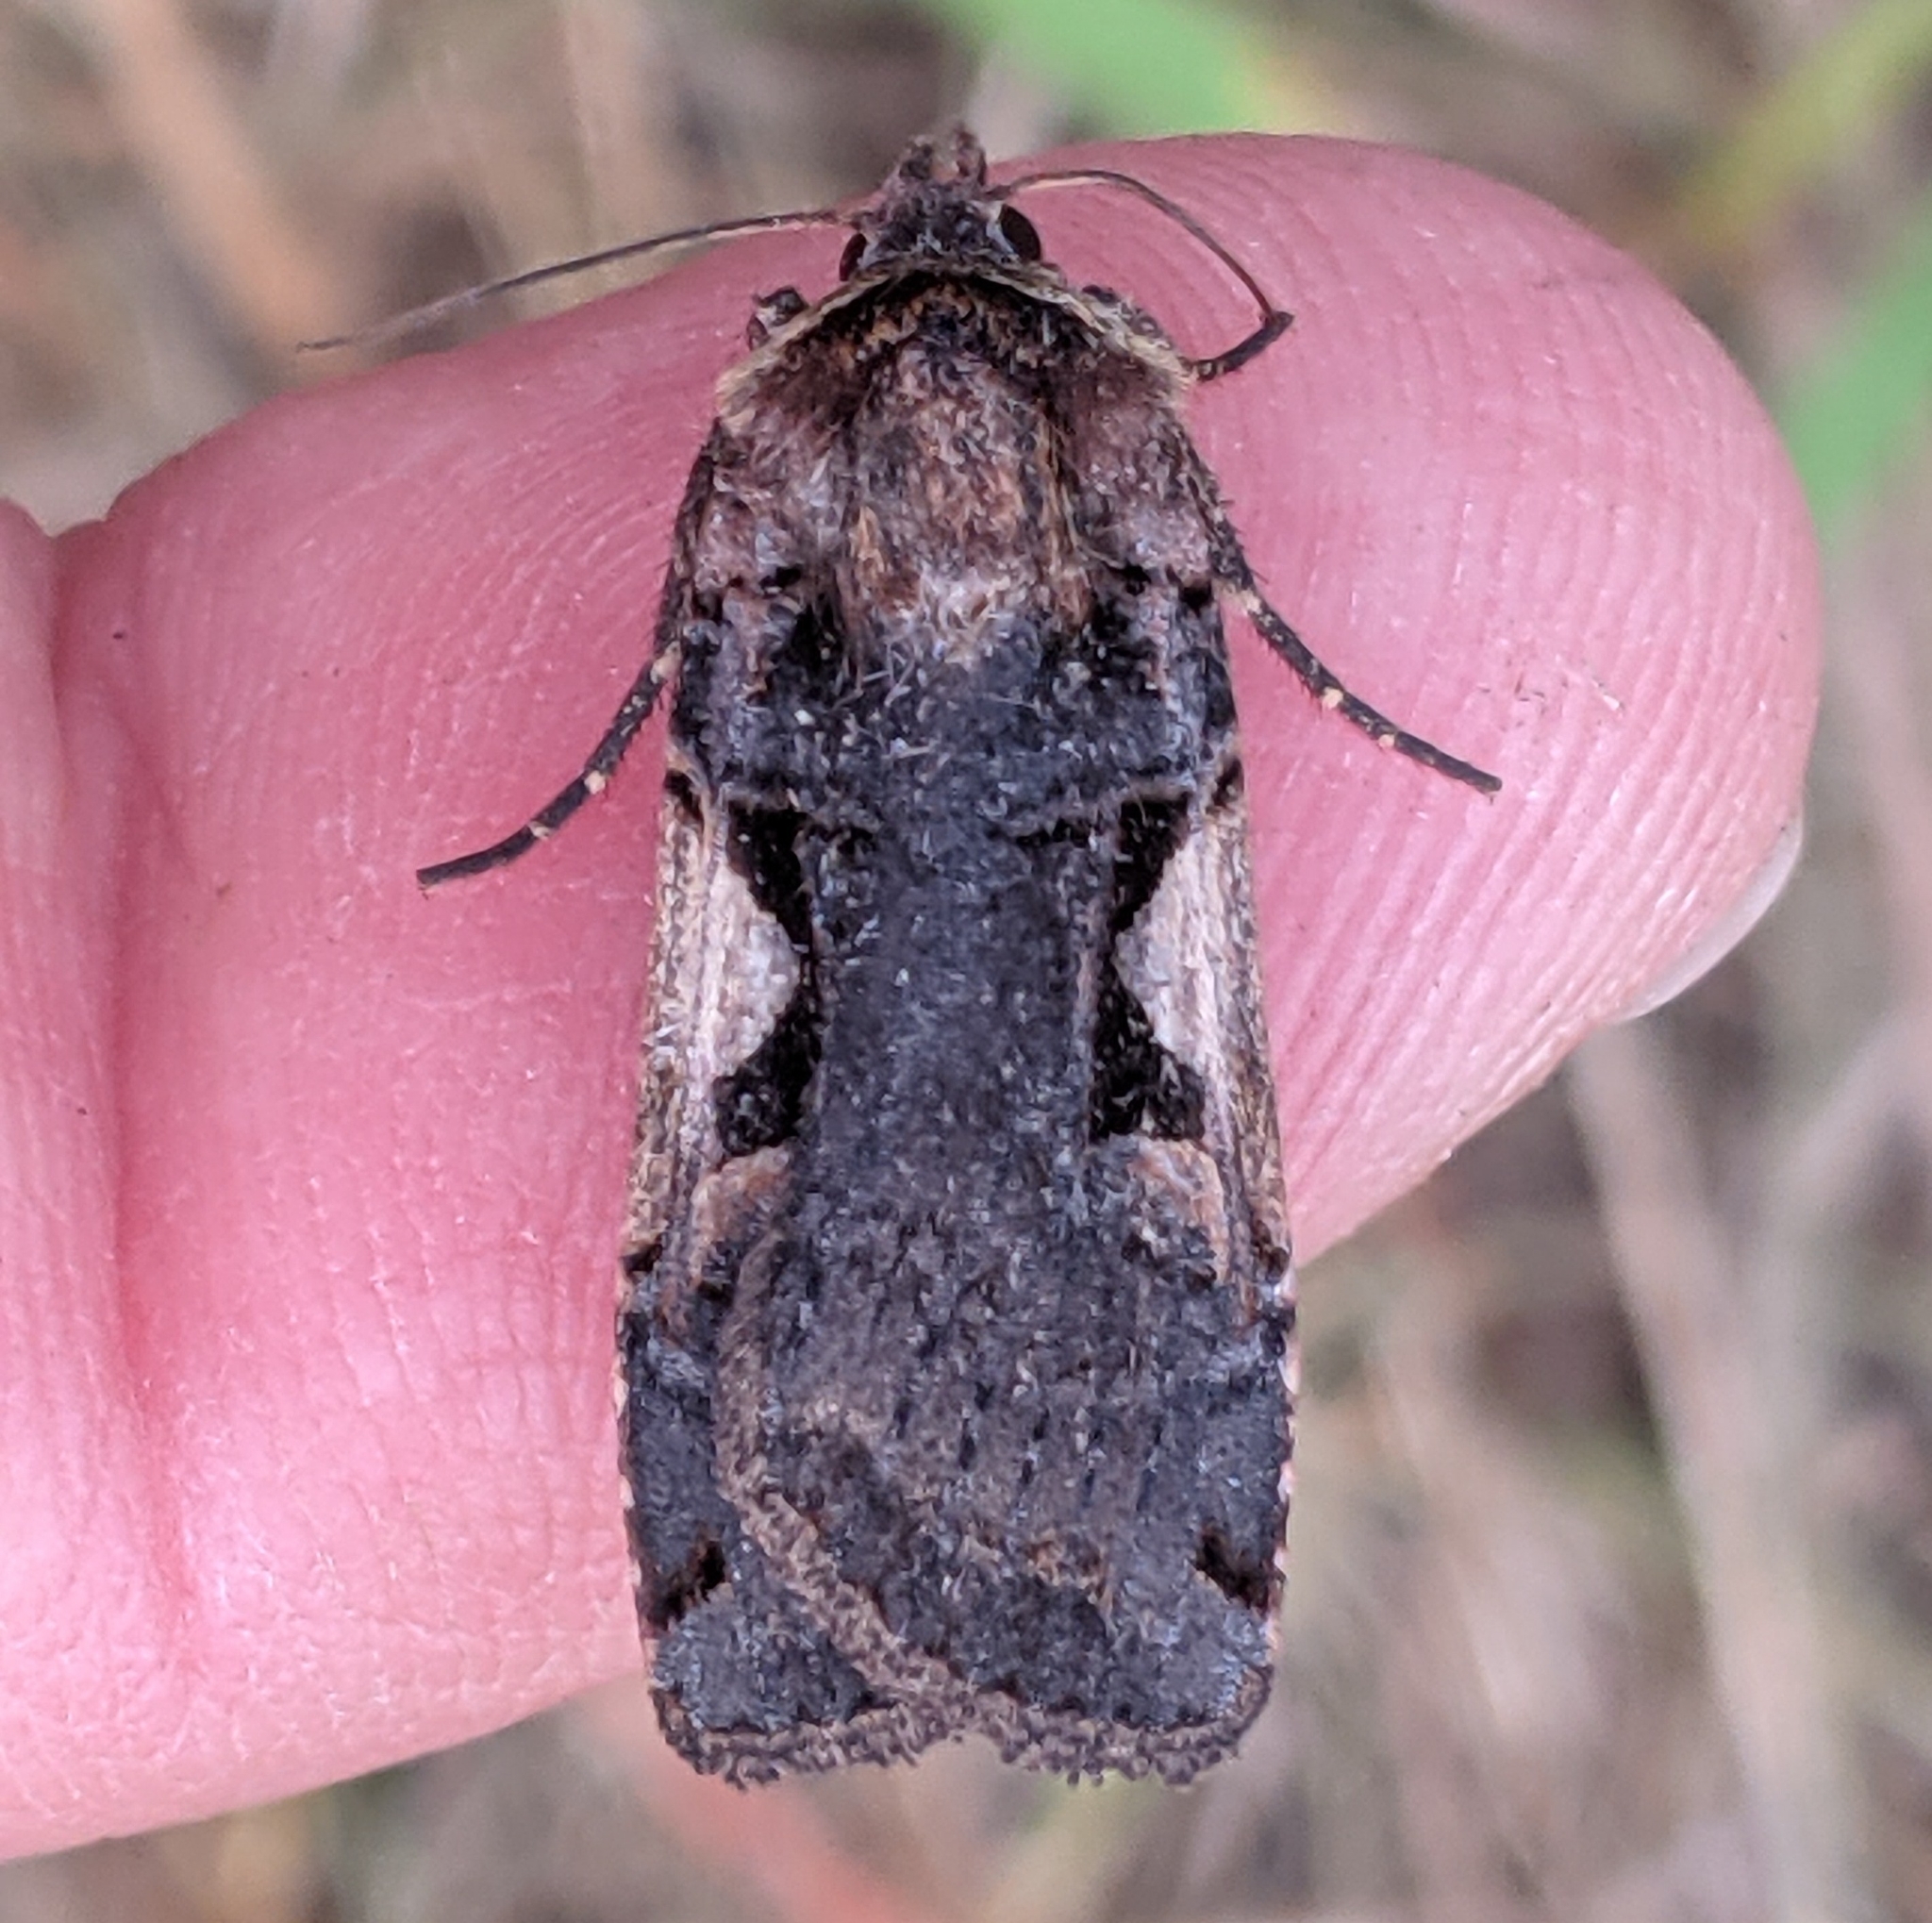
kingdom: Animalia
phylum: Arthropoda
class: Insecta
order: Lepidoptera
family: Noctuidae
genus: Xestia
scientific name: Xestia c-nigrum
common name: Setaceous hebrew character
